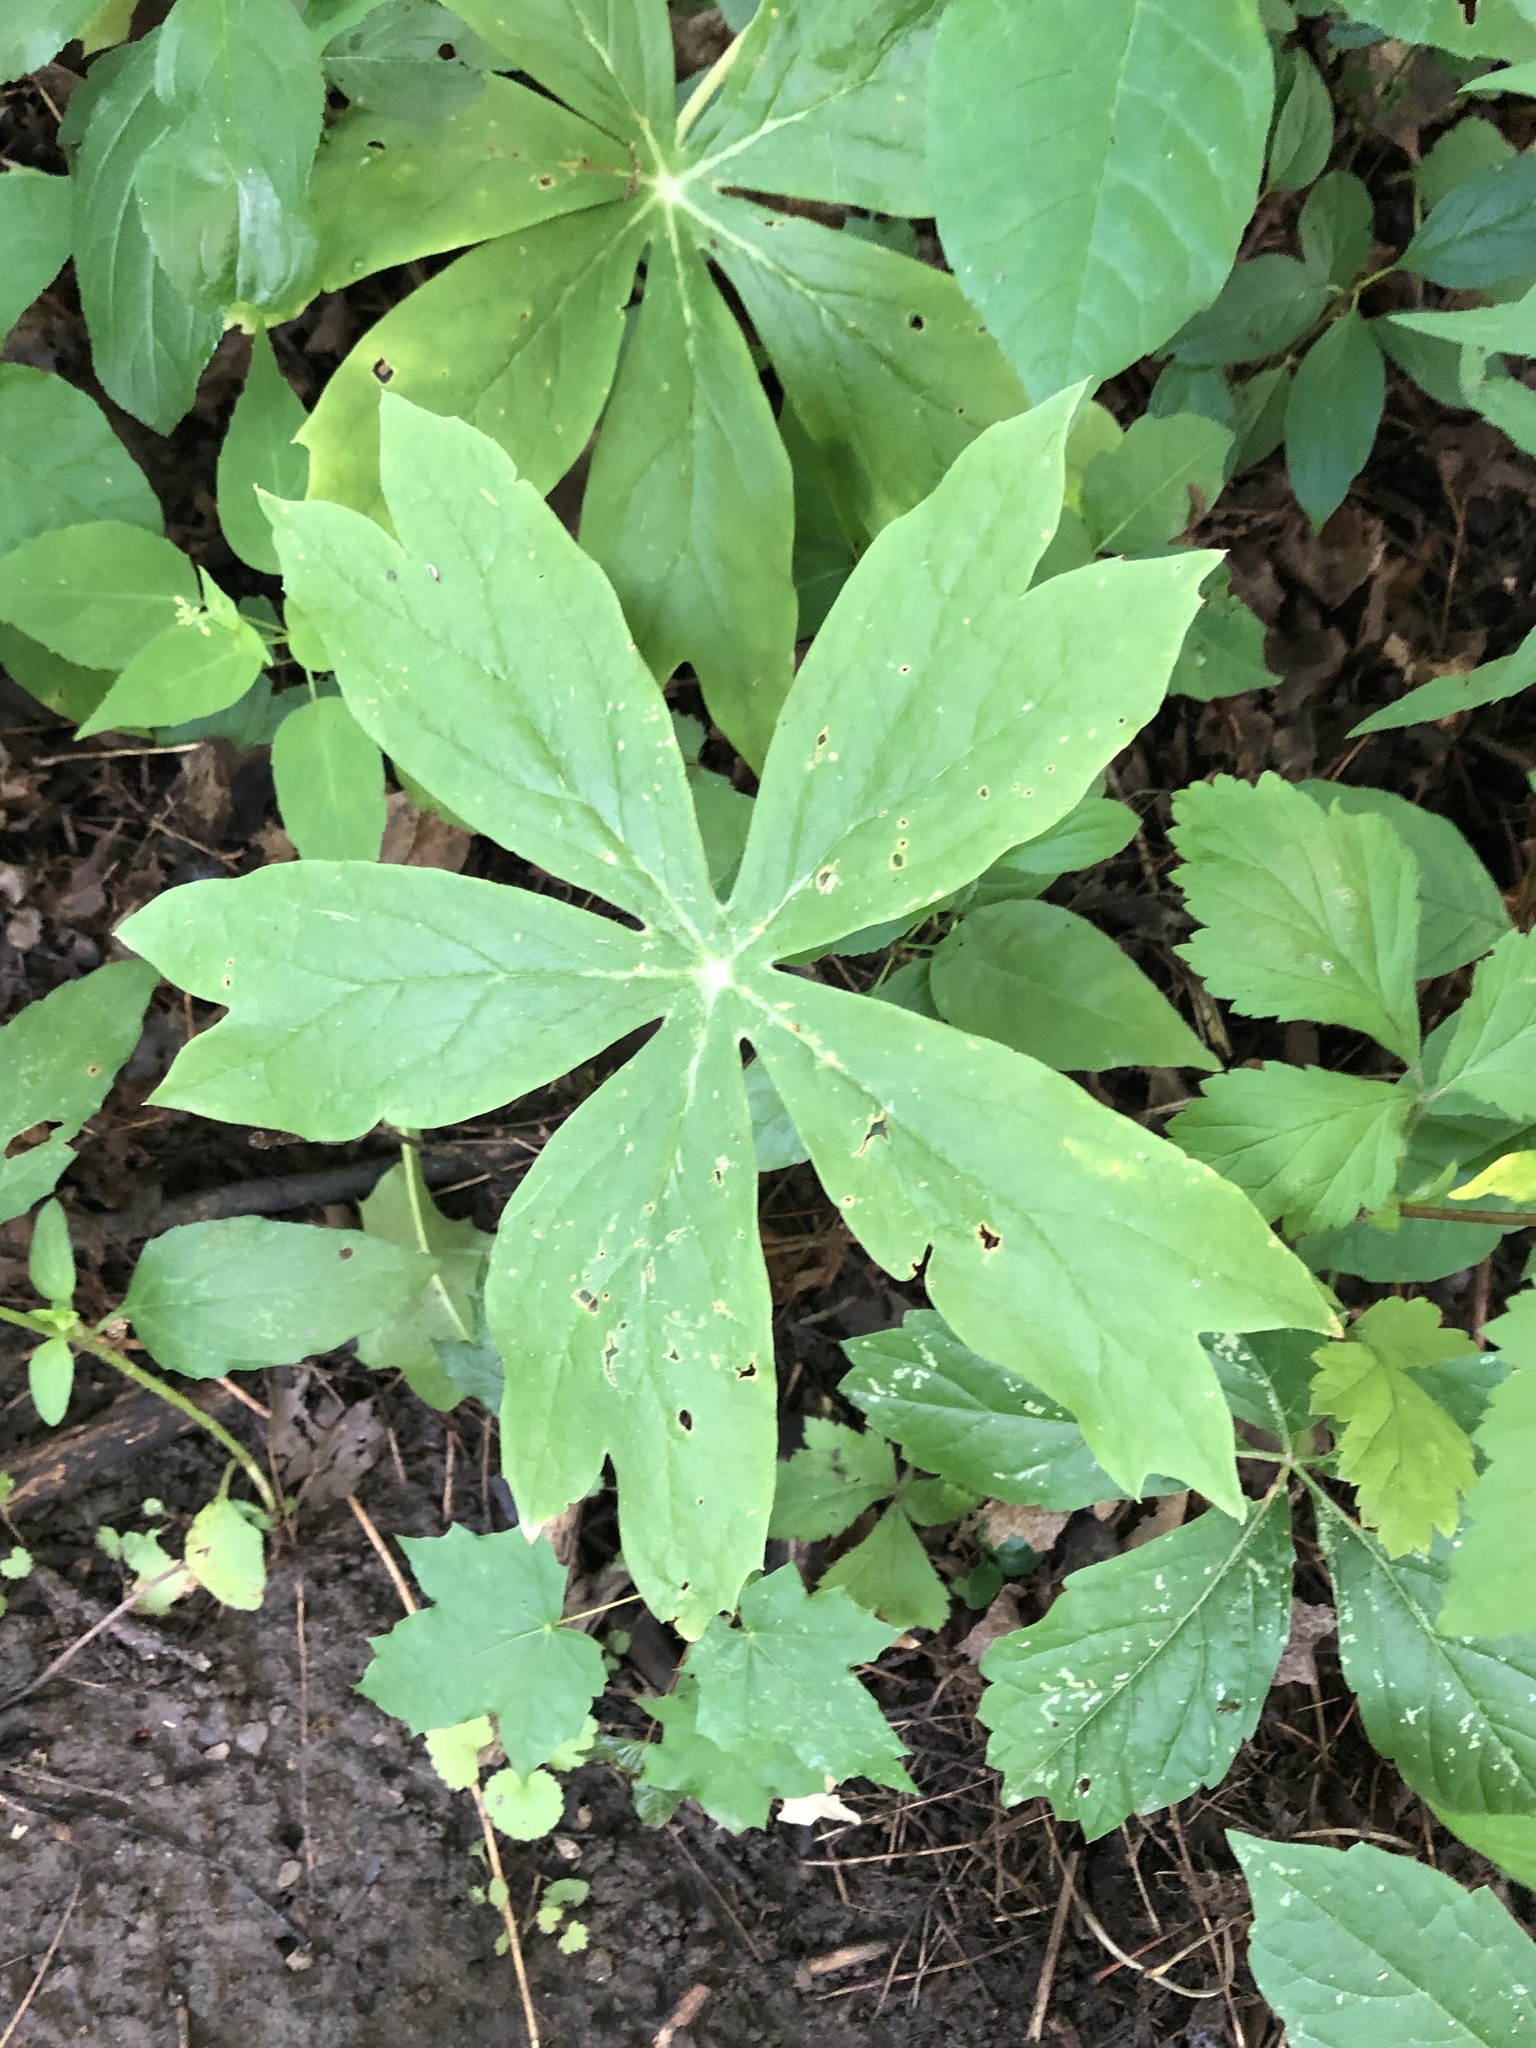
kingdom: Plantae
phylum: Tracheophyta
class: Magnoliopsida
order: Ranunculales
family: Berberidaceae
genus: Podophyllum
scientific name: Podophyllum peltatum
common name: Wild mandrake
